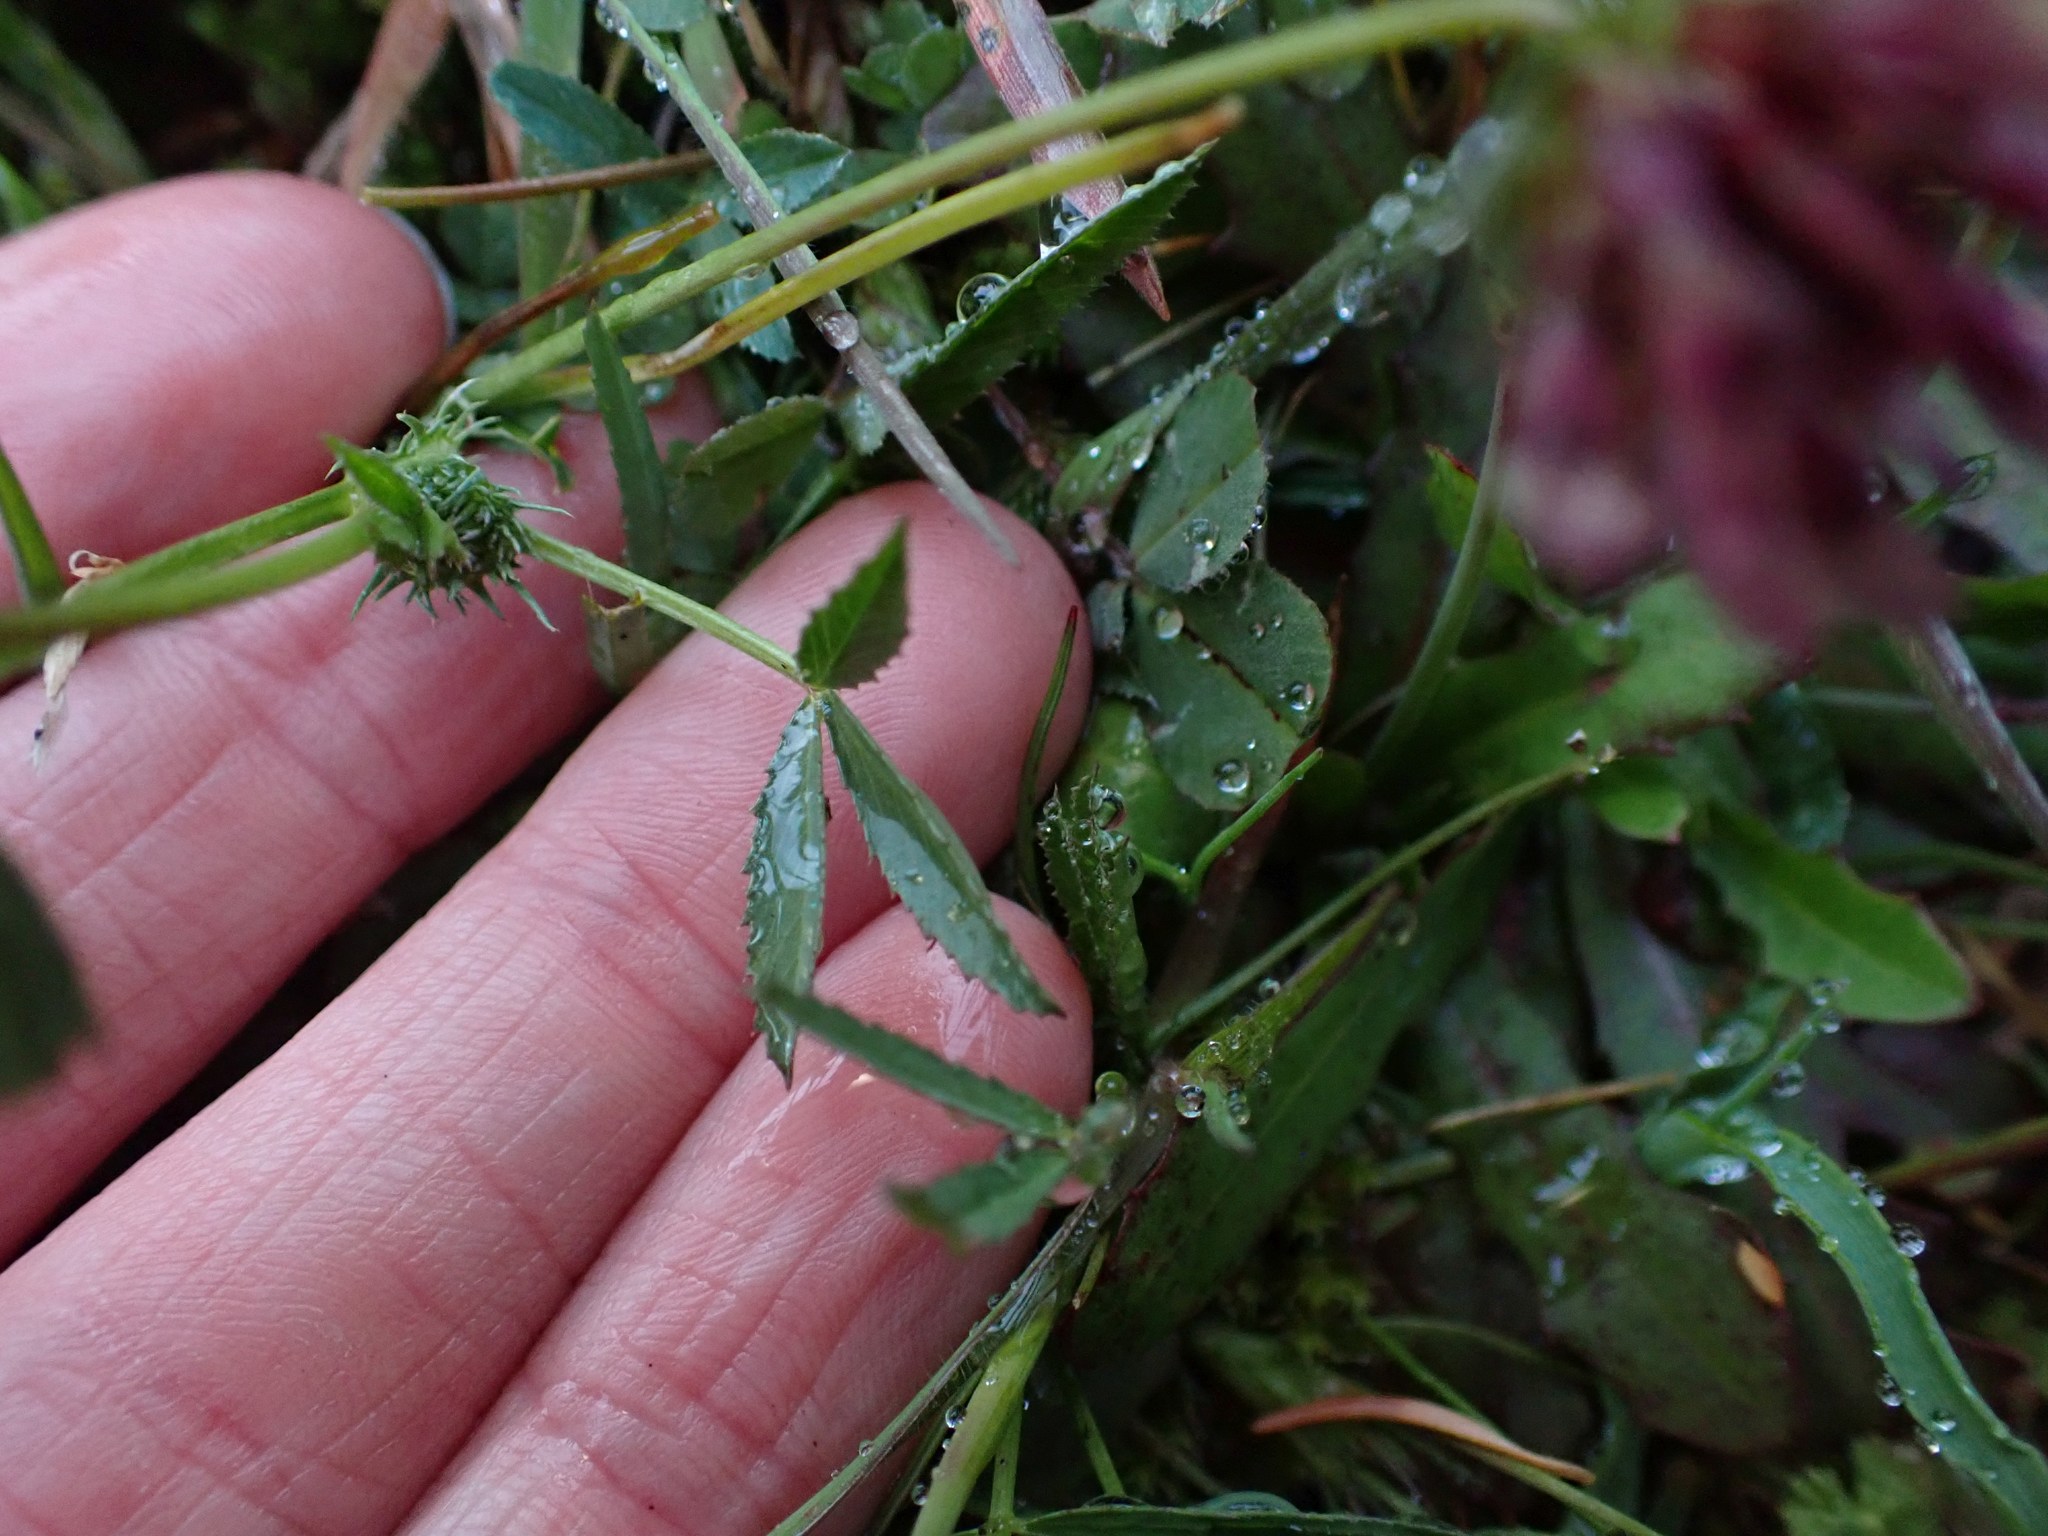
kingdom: Plantae
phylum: Tracheophyta
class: Magnoliopsida
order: Fabales
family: Fabaceae
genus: Trifolium
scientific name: Trifolium willdenovii
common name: Tomcat clover
